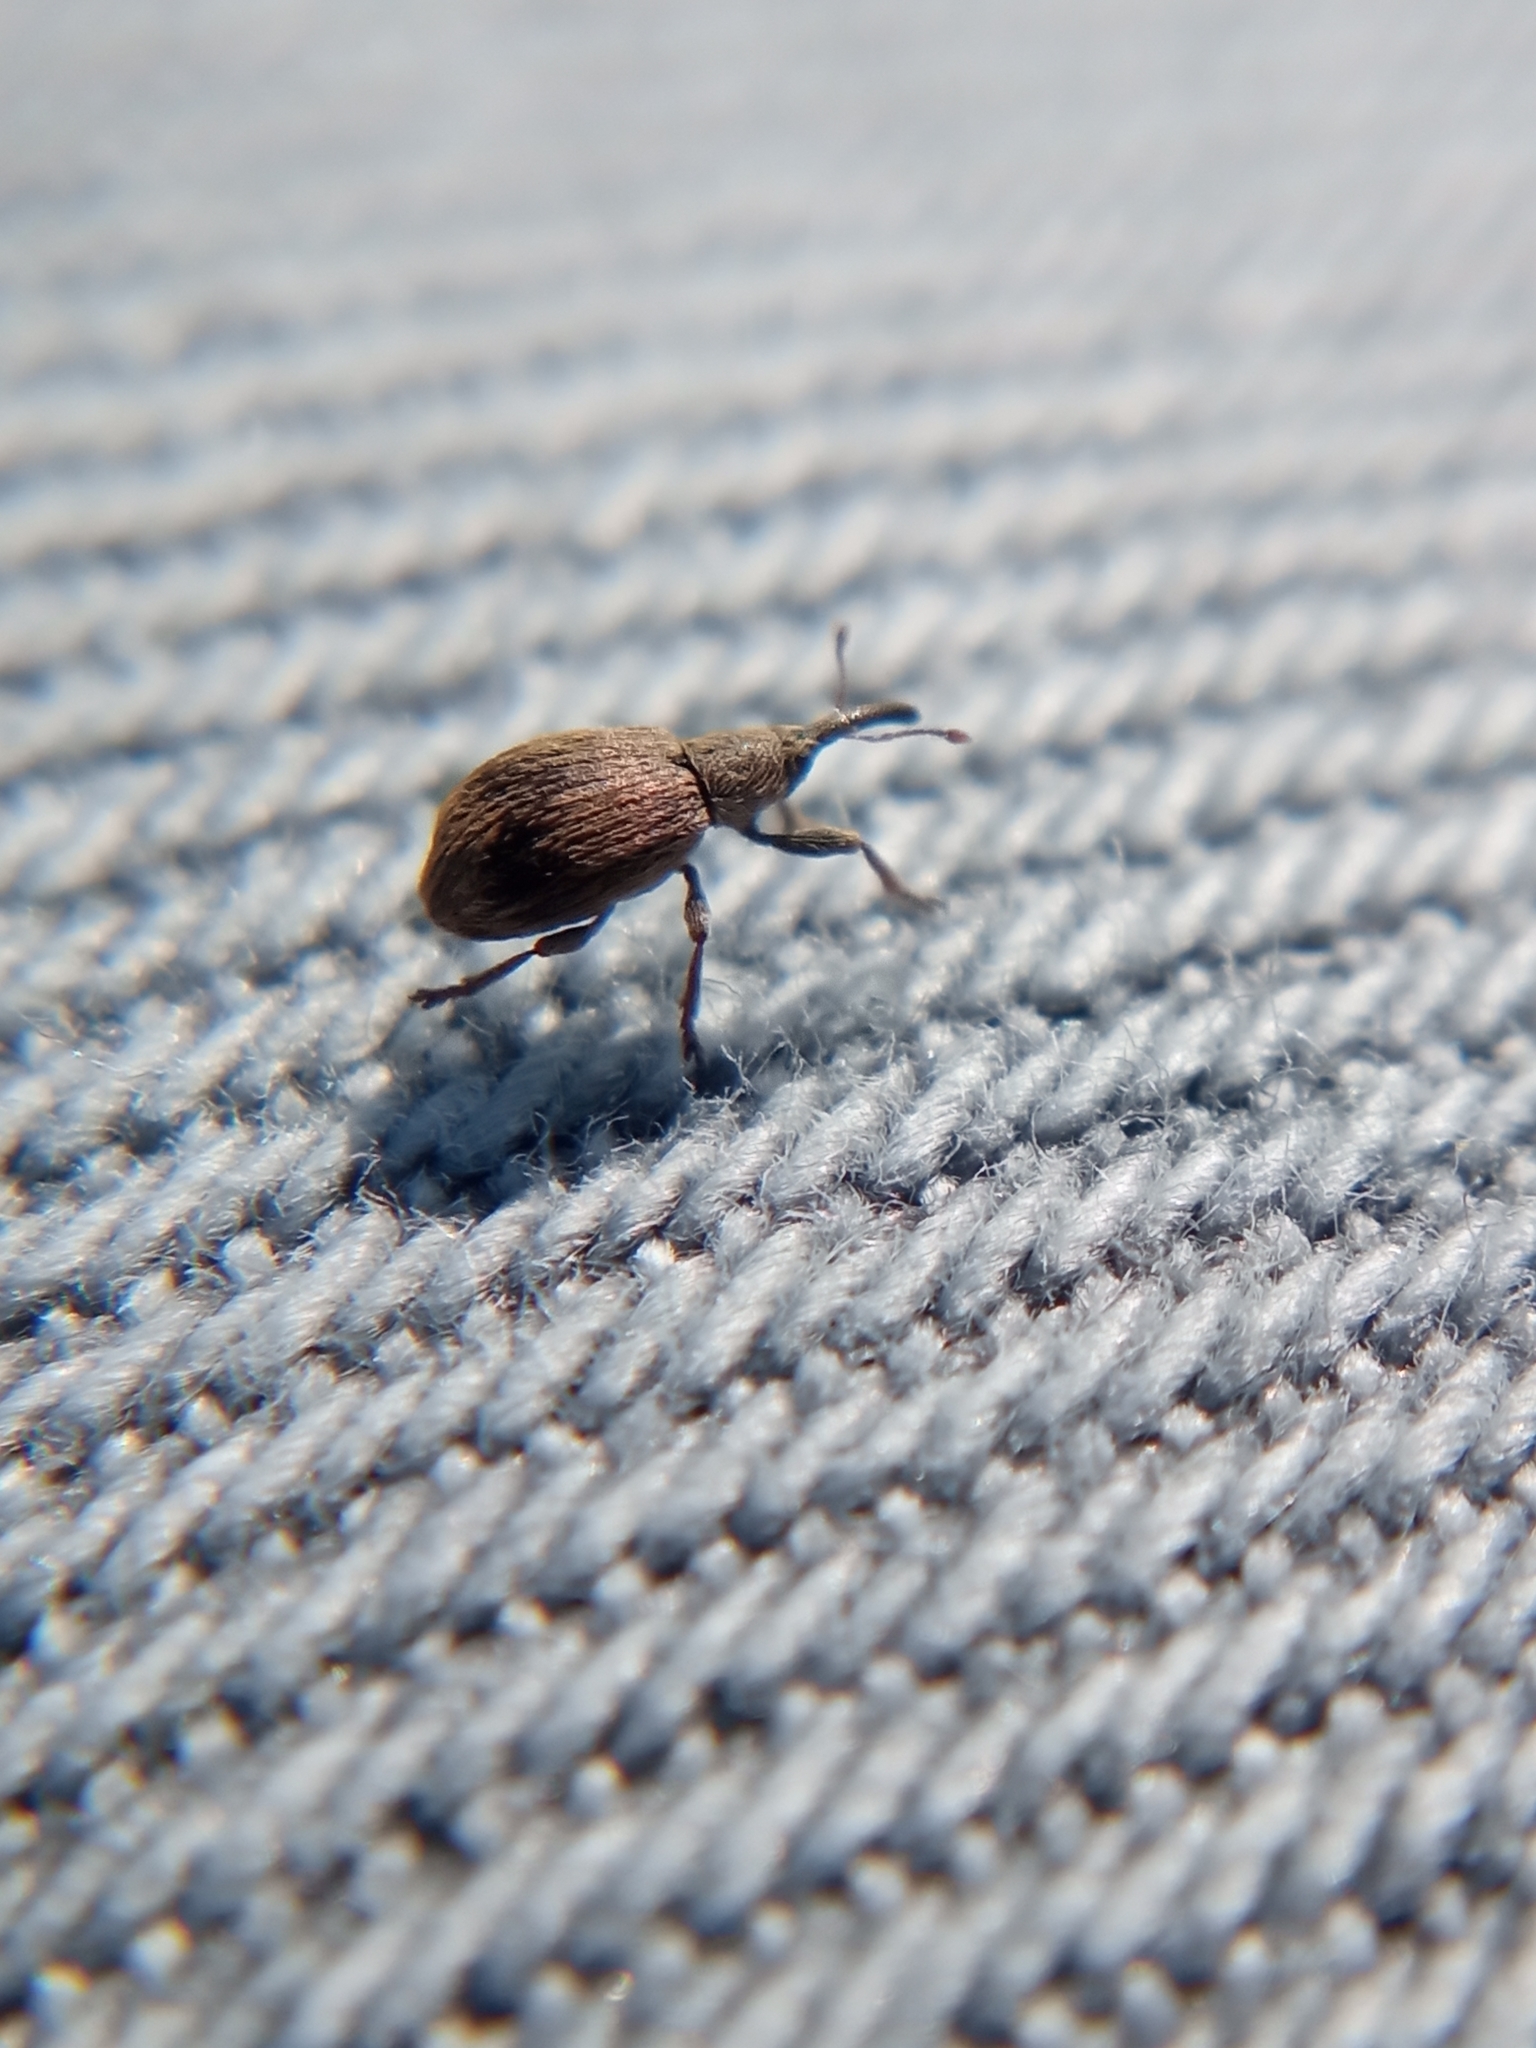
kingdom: Animalia
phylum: Arthropoda
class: Insecta
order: Coleoptera
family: Apionidae
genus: Trichopterapion
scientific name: Trichopterapion holosericeum
